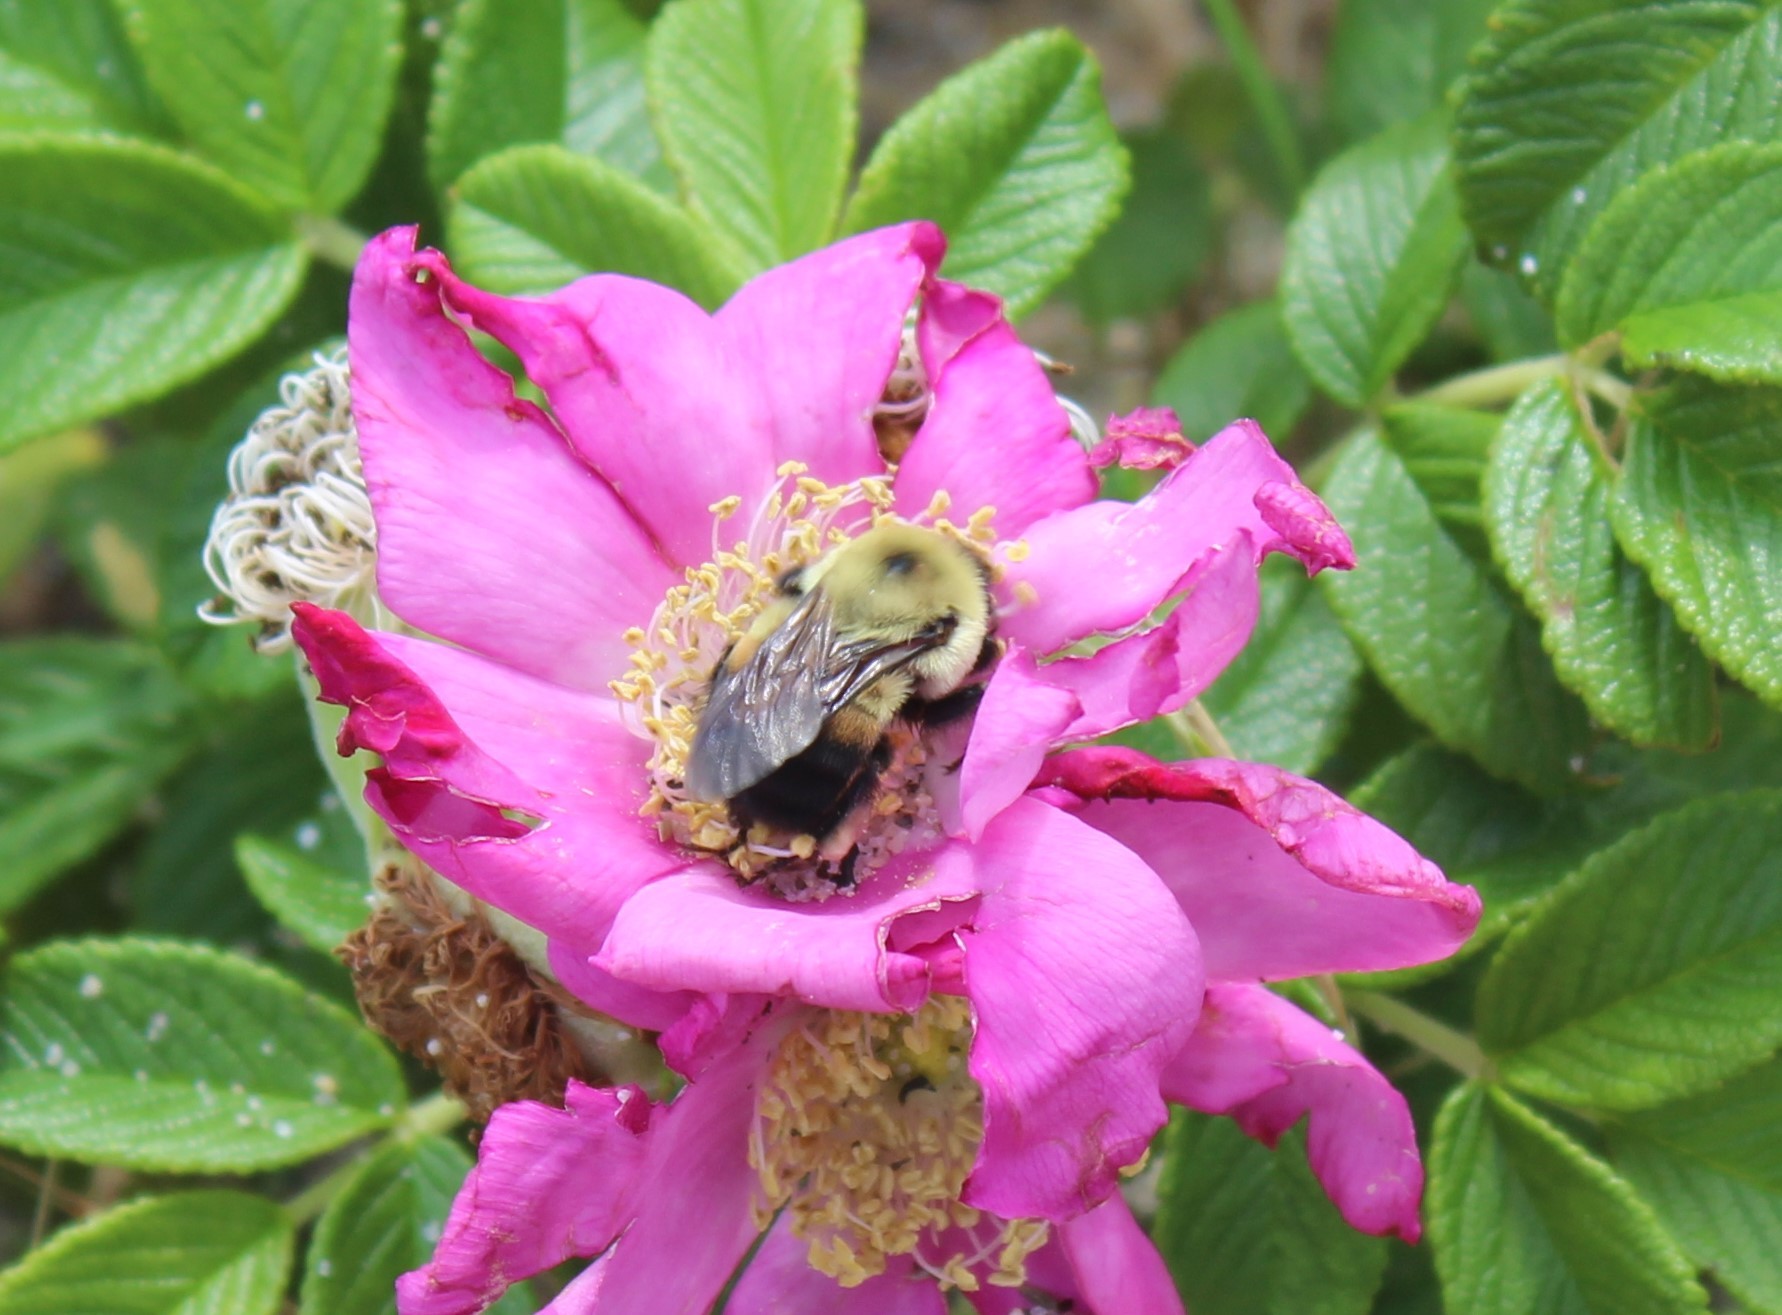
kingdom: Animalia
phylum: Arthropoda
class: Insecta
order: Hymenoptera
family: Apidae
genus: Bombus
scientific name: Bombus griseocollis
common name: Brown-belted bumble bee
